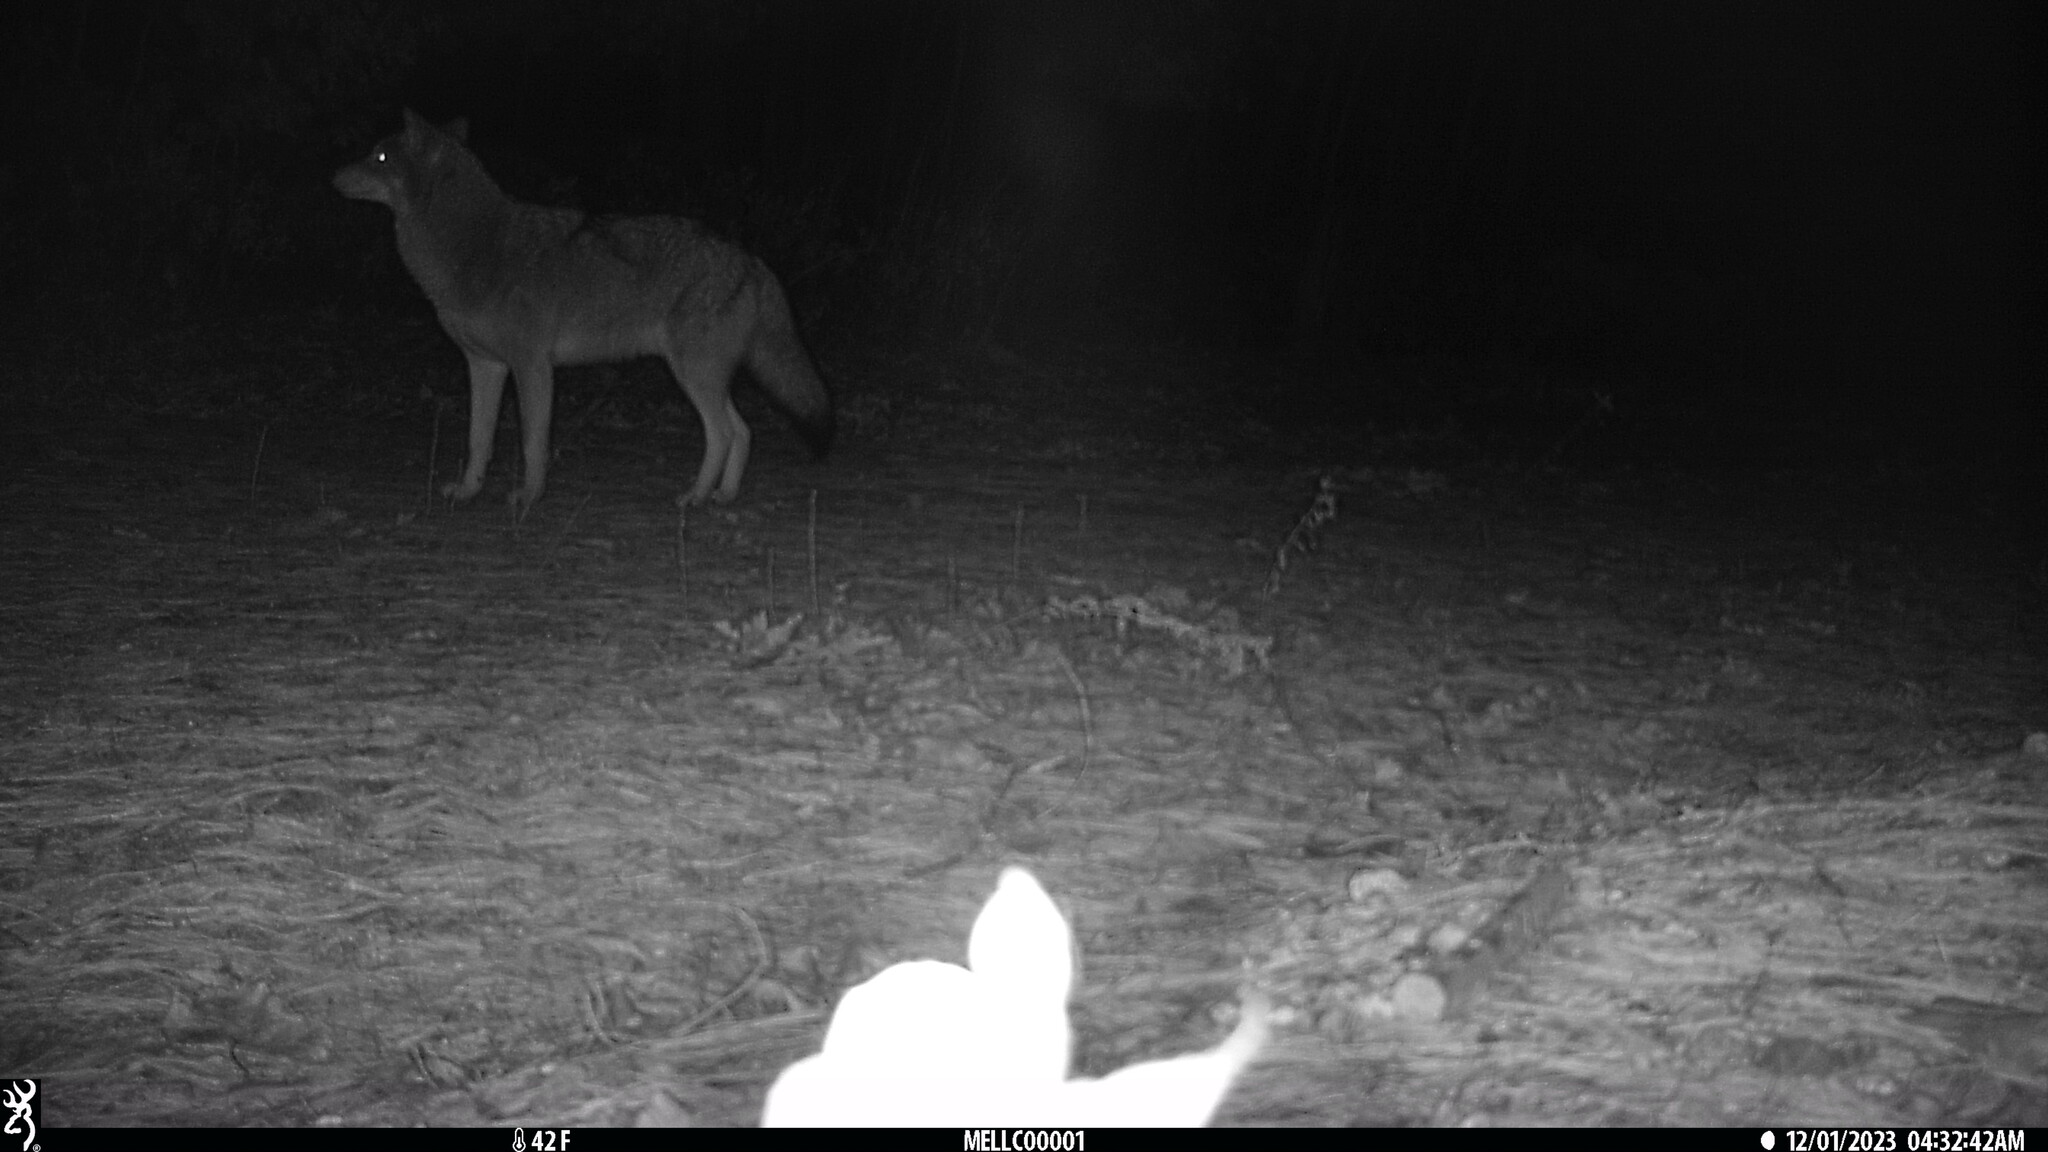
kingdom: Animalia
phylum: Chordata
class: Mammalia
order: Carnivora
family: Canidae
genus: Canis
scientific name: Canis latrans
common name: Coyote
